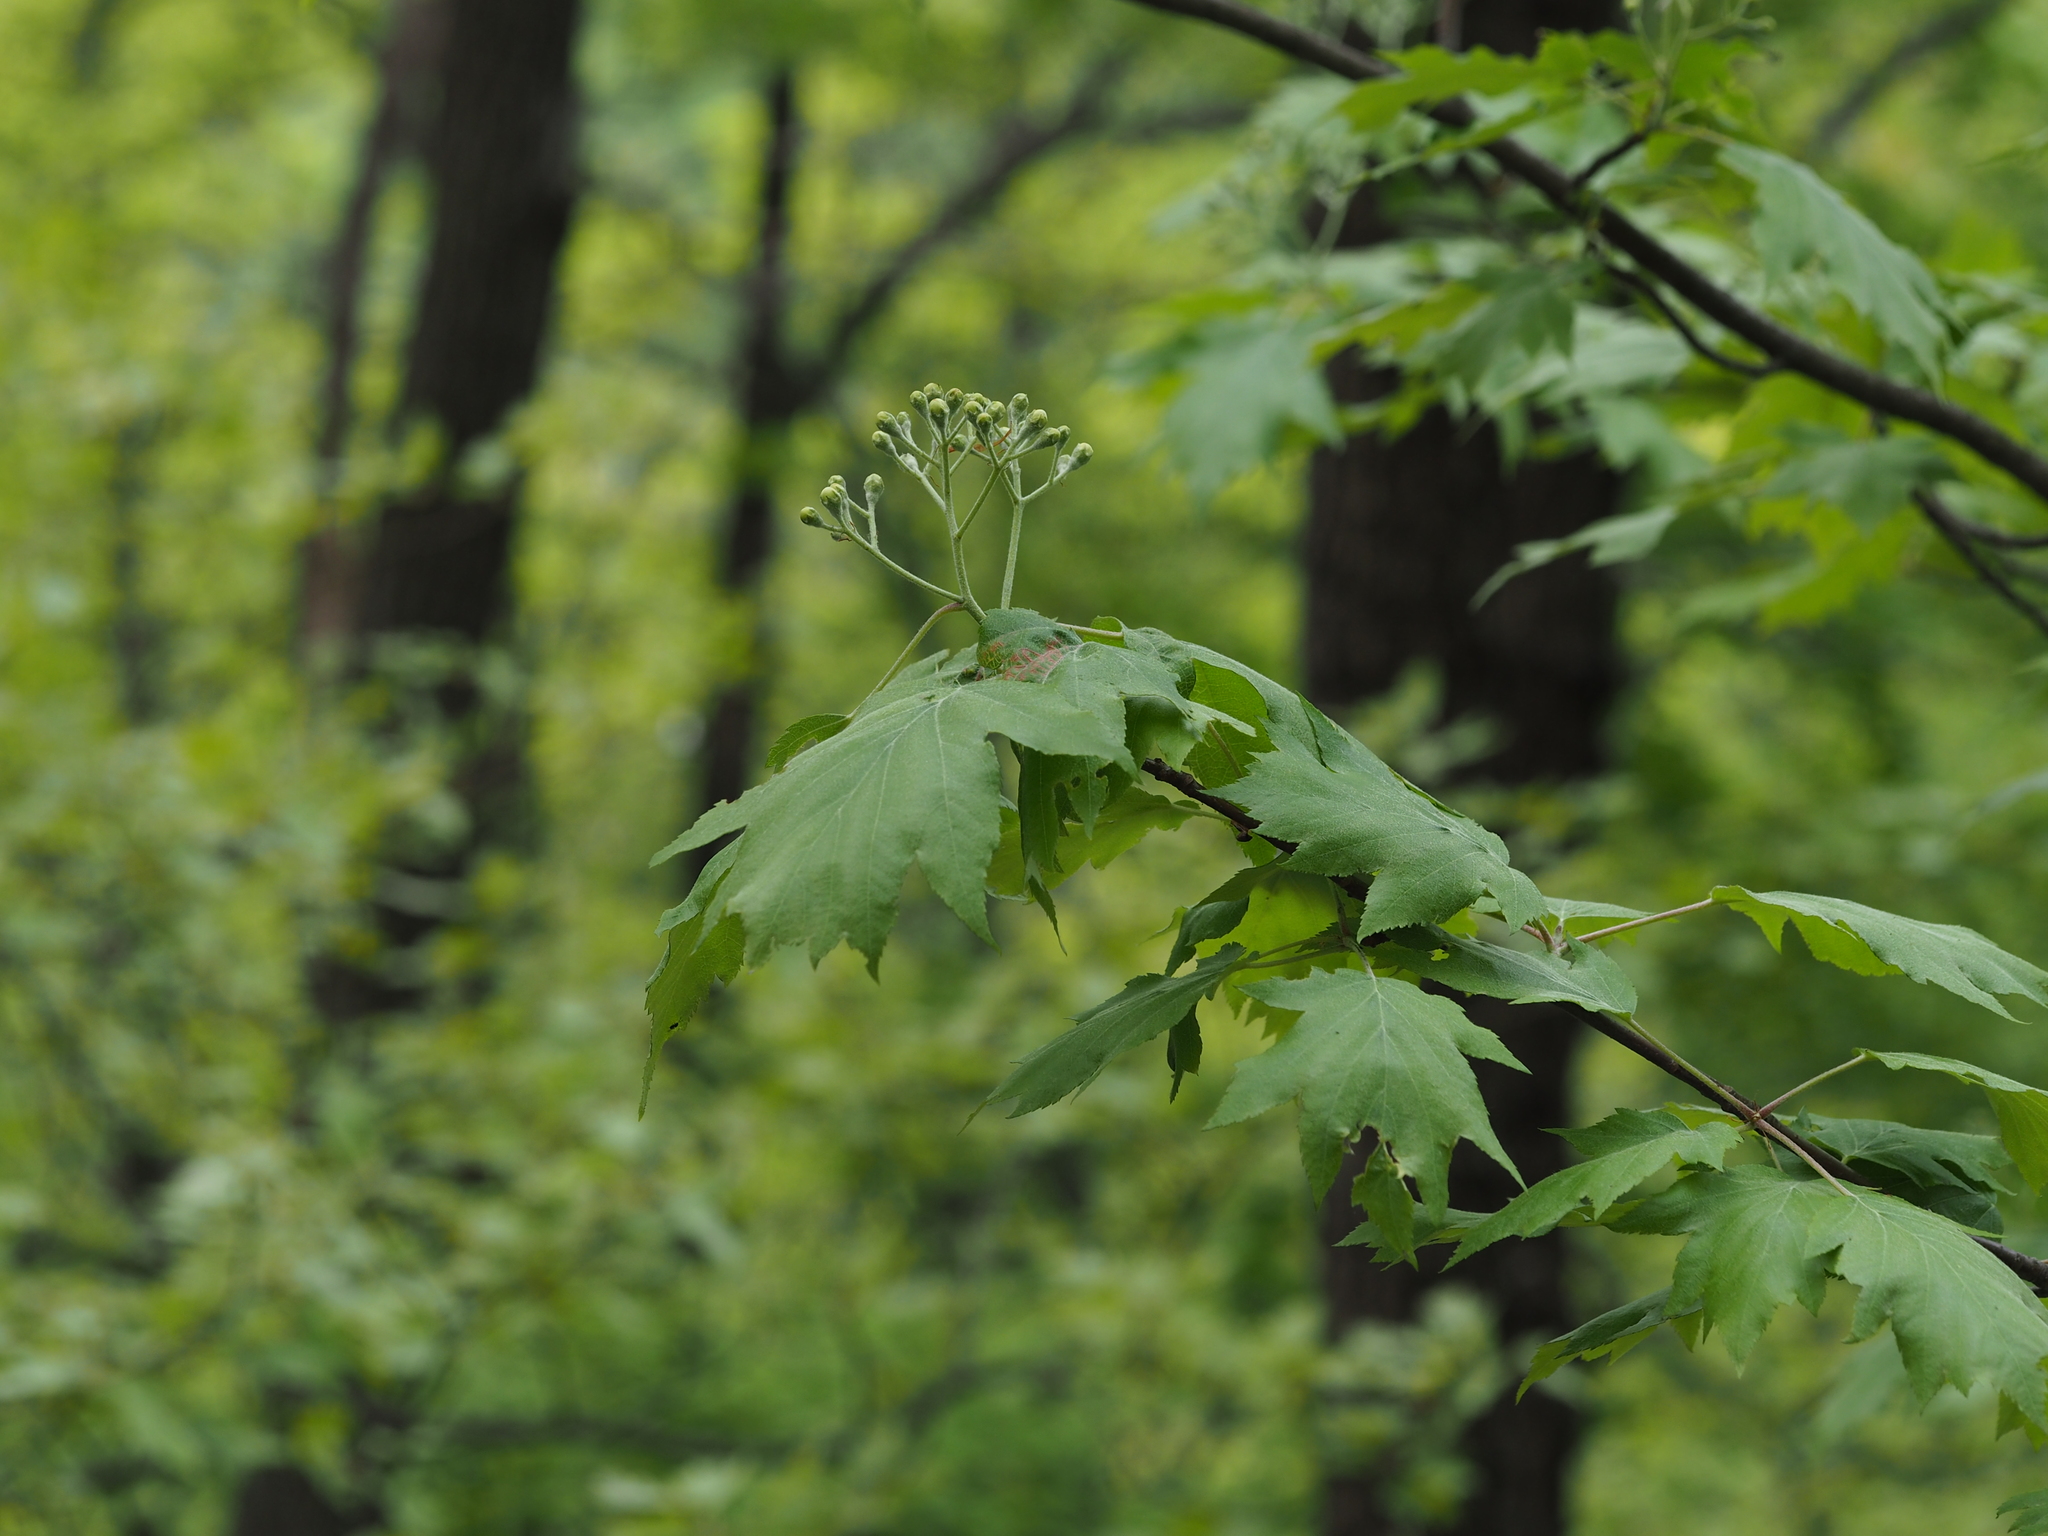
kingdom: Plantae
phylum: Tracheophyta
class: Magnoliopsida
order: Rosales
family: Rosaceae
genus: Torminalis
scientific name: Torminalis glaberrima
